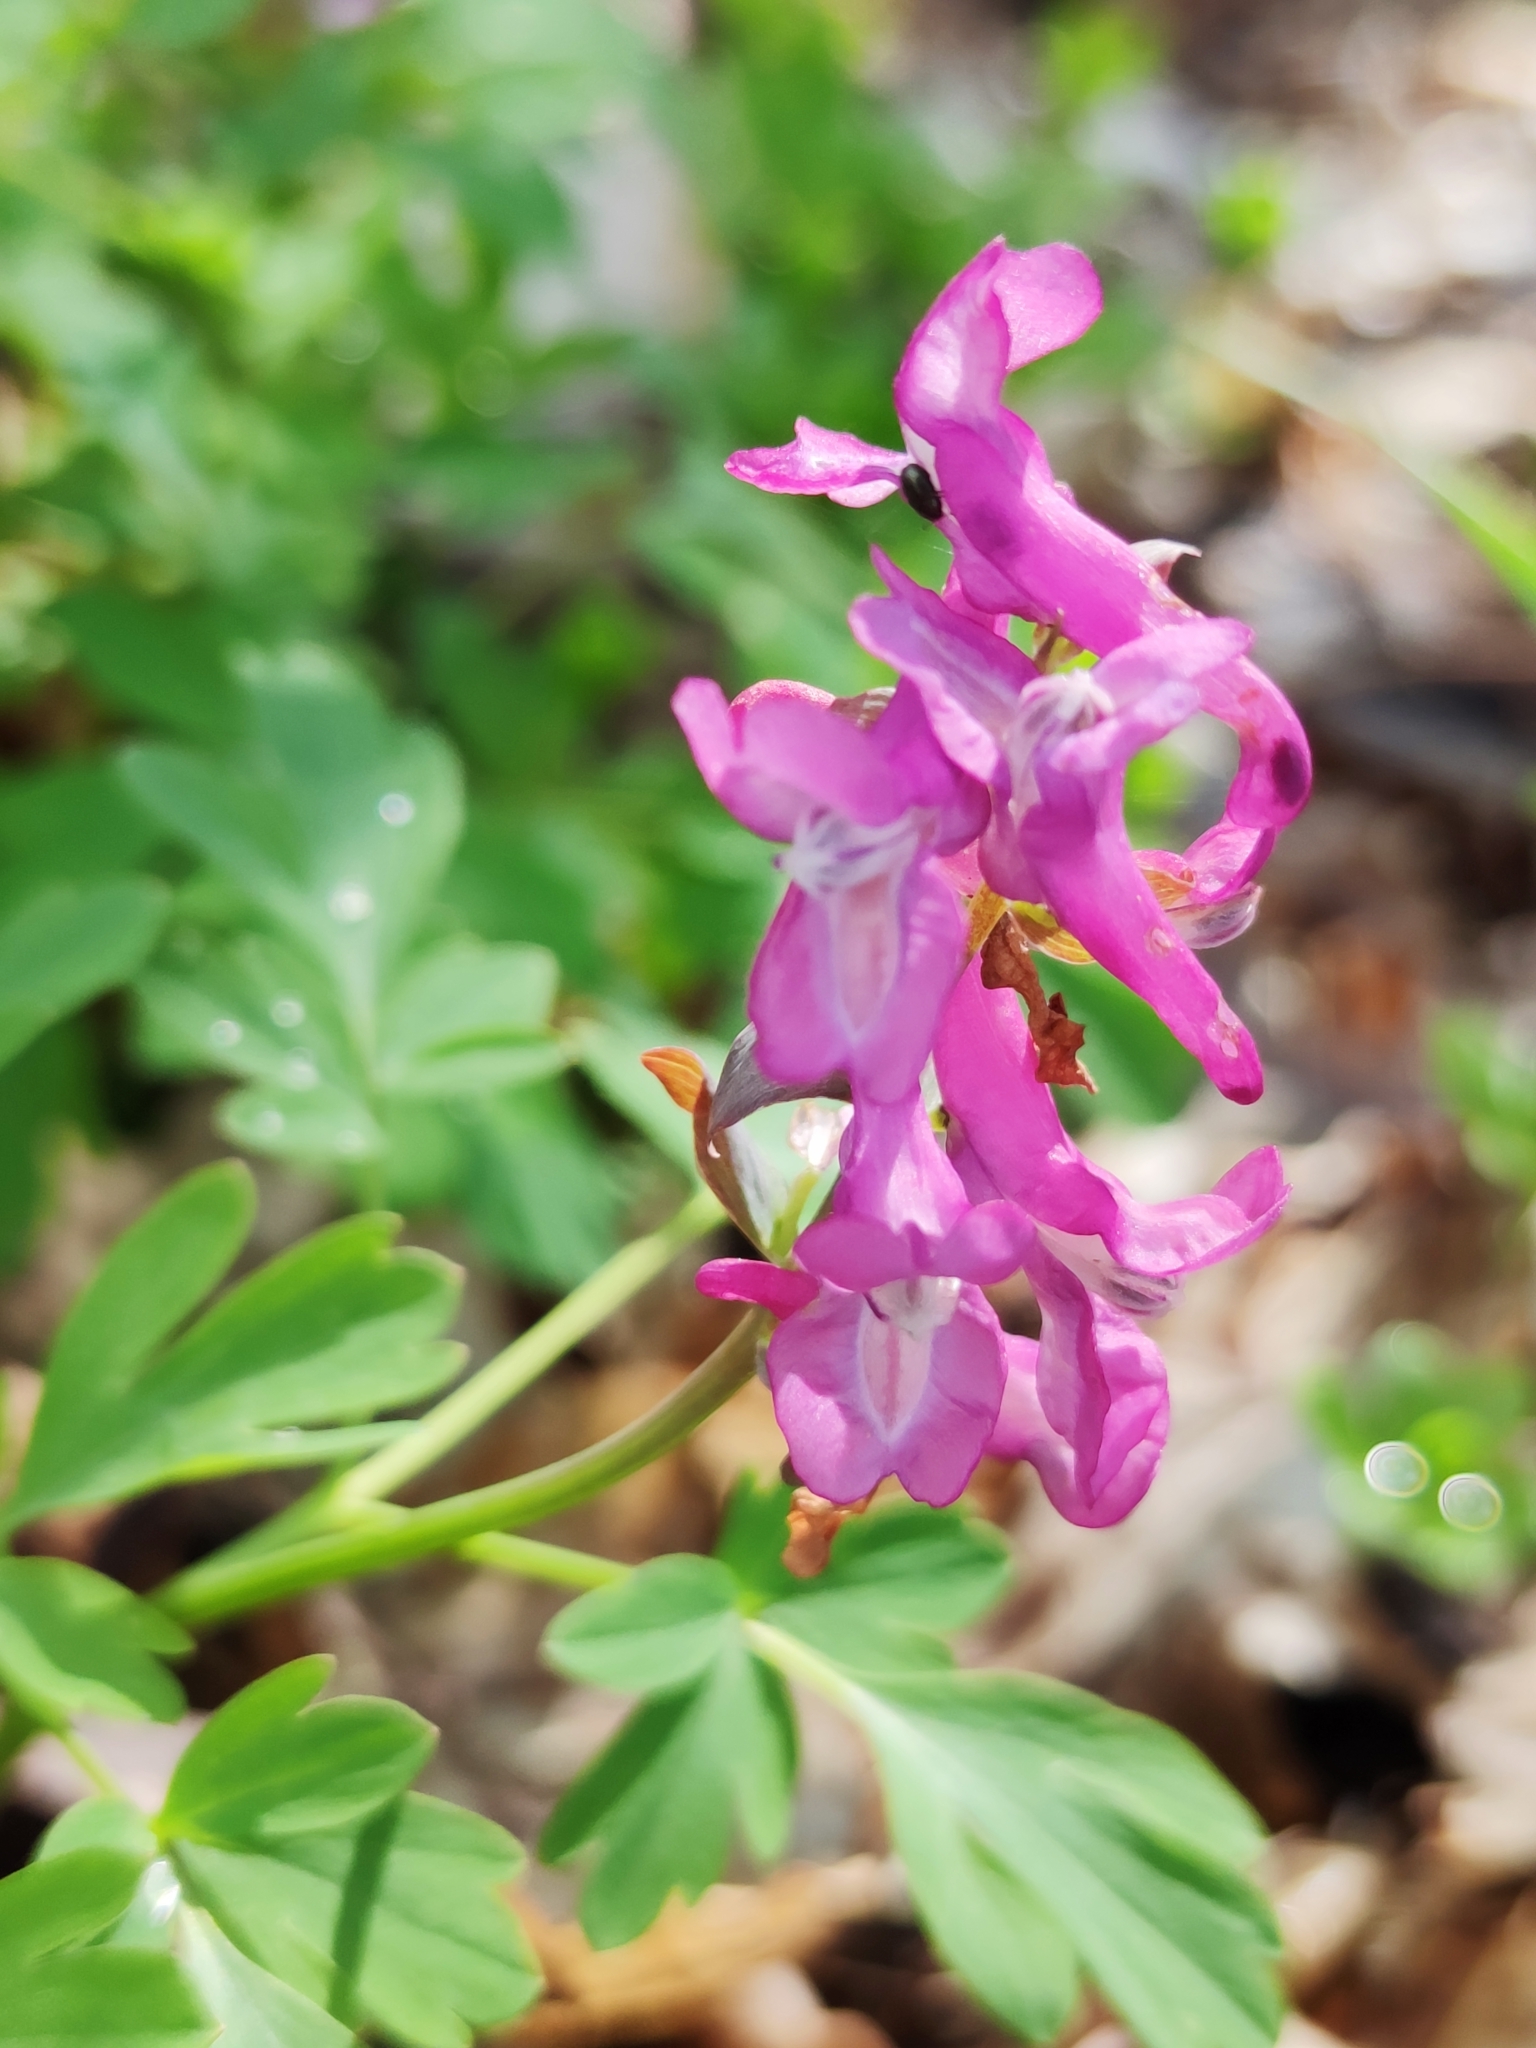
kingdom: Plantae
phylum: Tracheophyta
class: Magnoliopsida
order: Ranunculales
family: Papaveraceae
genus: Corydalis
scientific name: Corydalis cava
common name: Hollowroot
